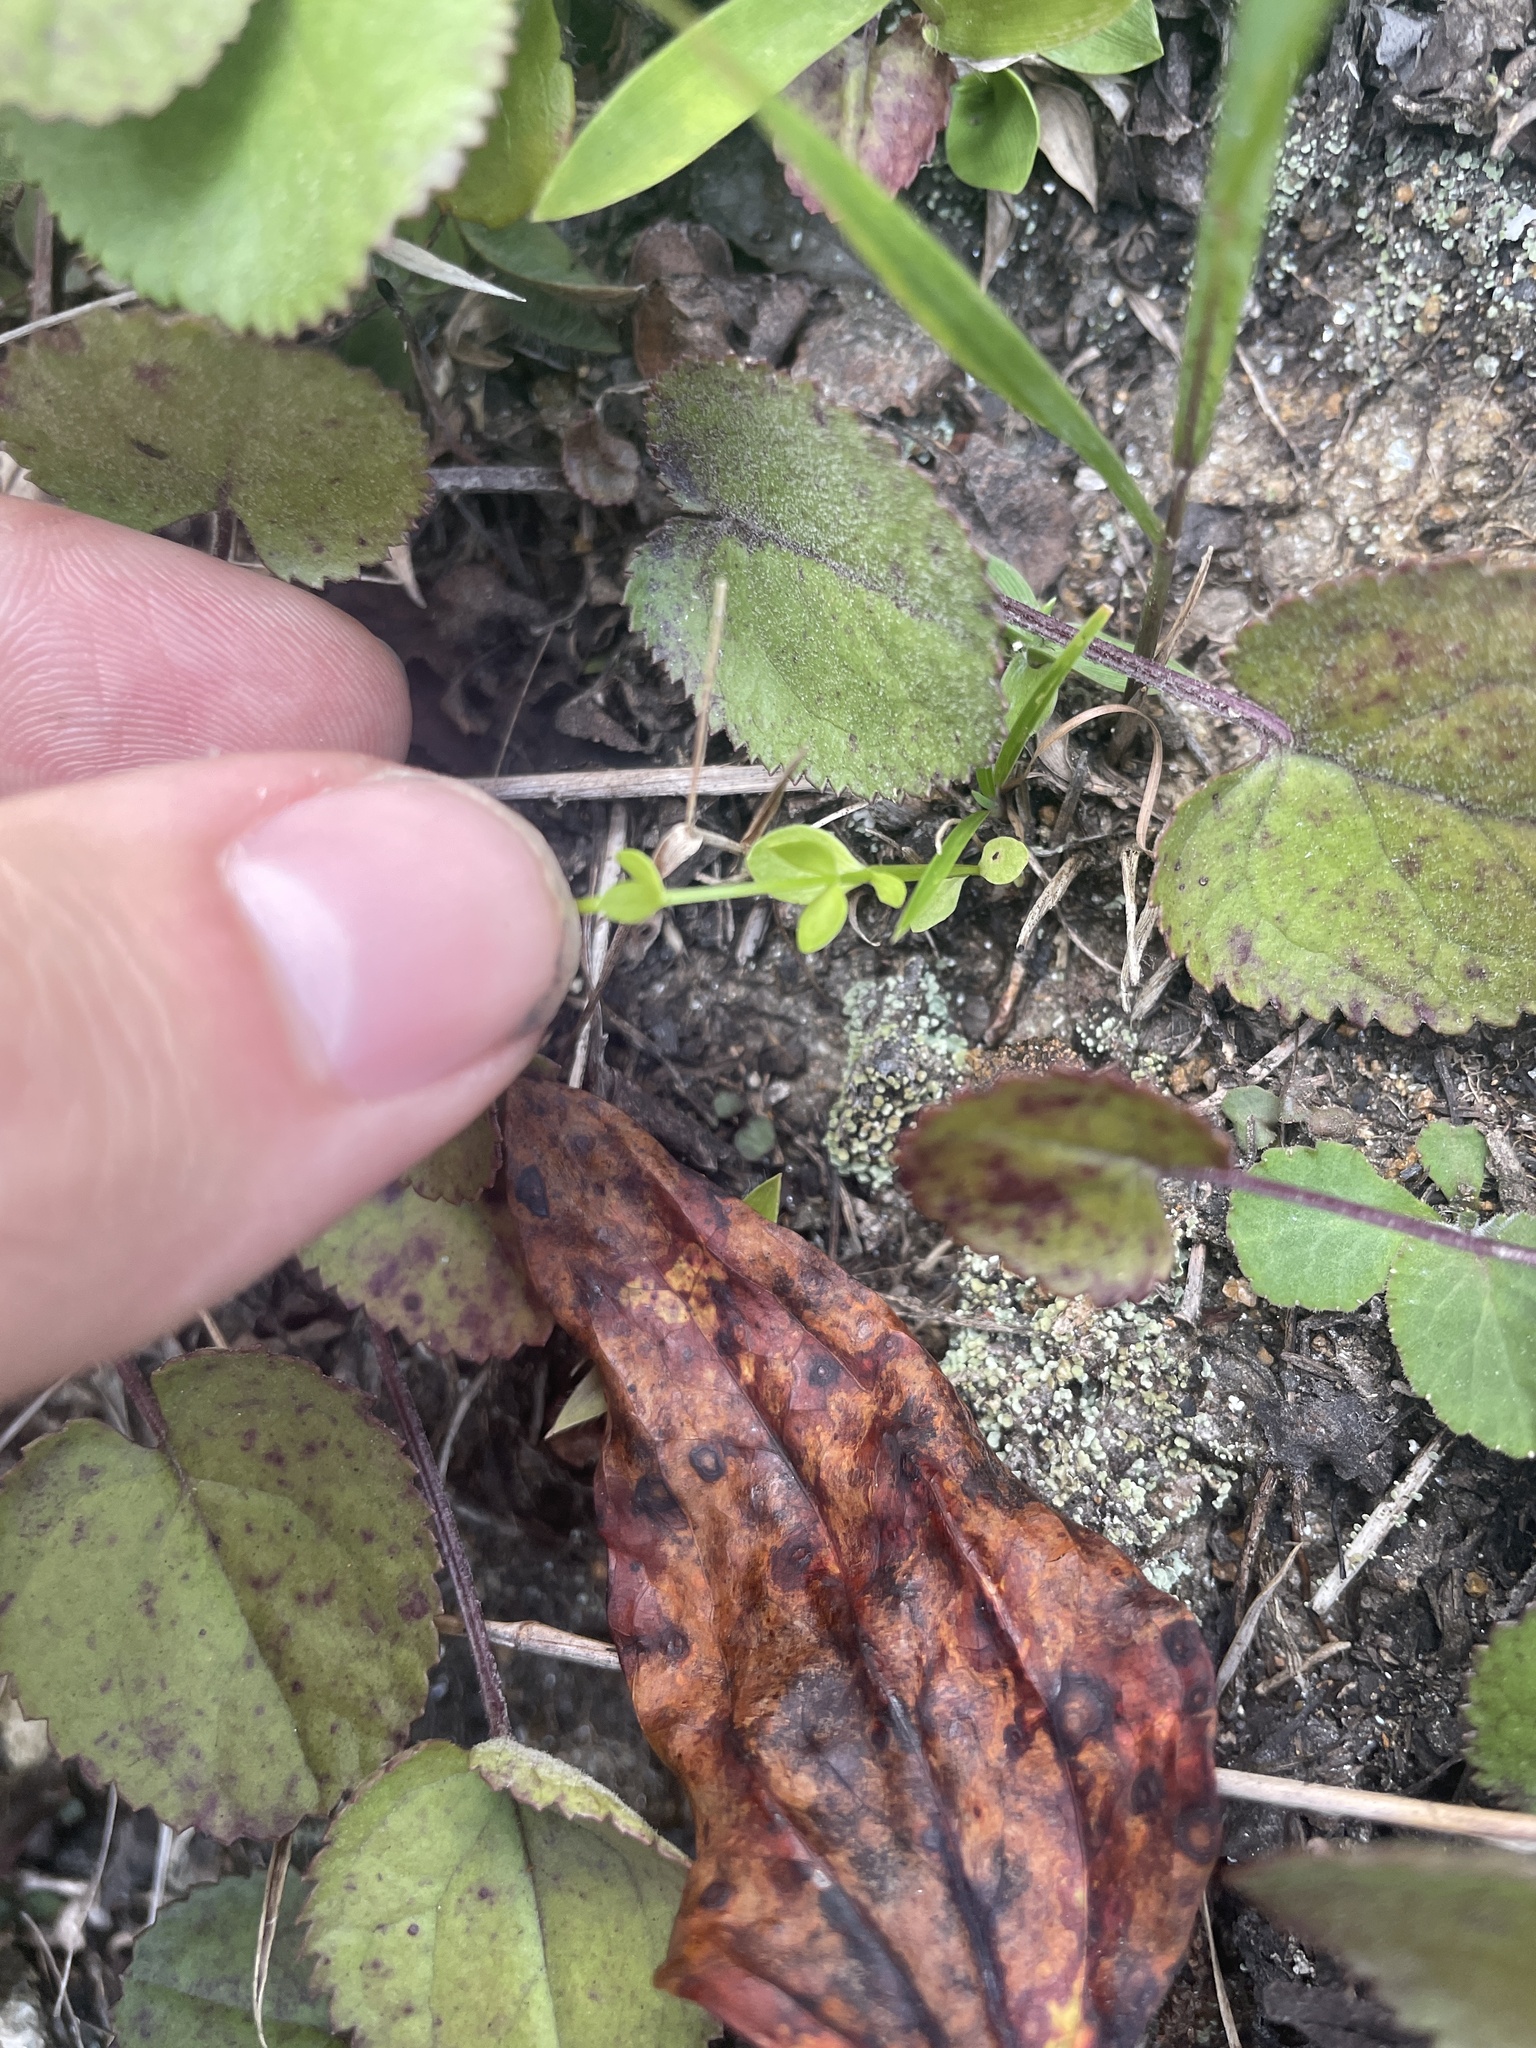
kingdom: Plantae
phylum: Tracheophyta
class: Magnoliopsida
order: Gentianales
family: Gentianaceae
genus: Sabatia
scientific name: Sabatia angularis
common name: Rose-pink
